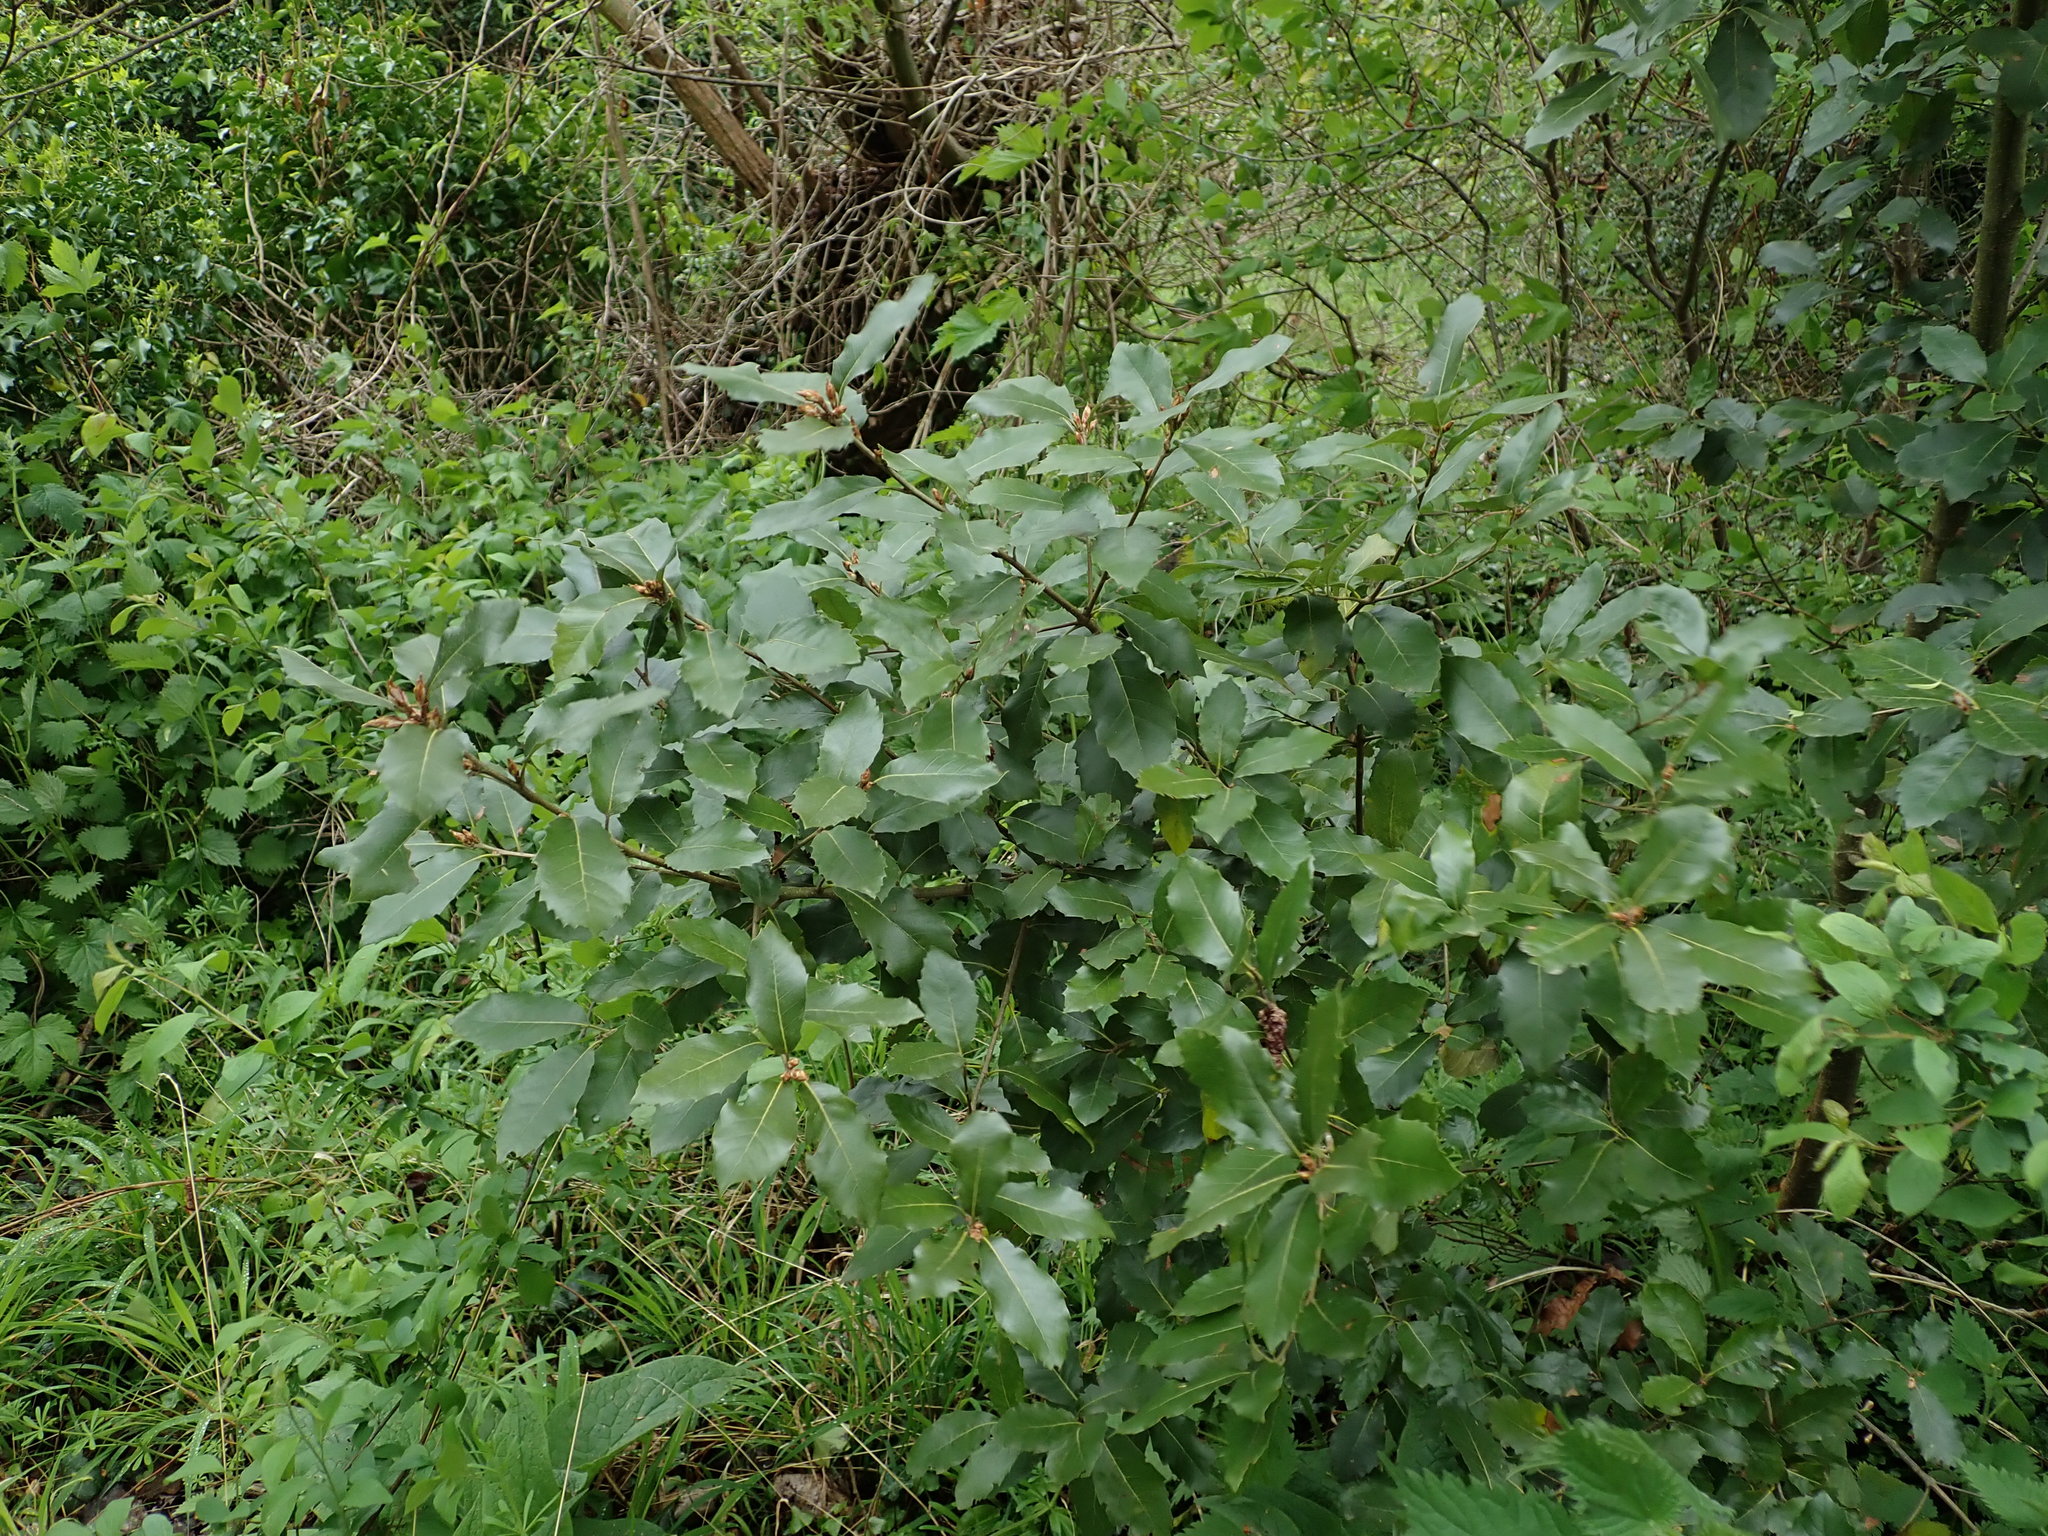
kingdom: Plantae
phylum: Tracheophyta
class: Magnoliopsida
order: Fagales
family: Fagaceae
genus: Quercus
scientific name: Quercus ilex
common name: Evergreen oak
